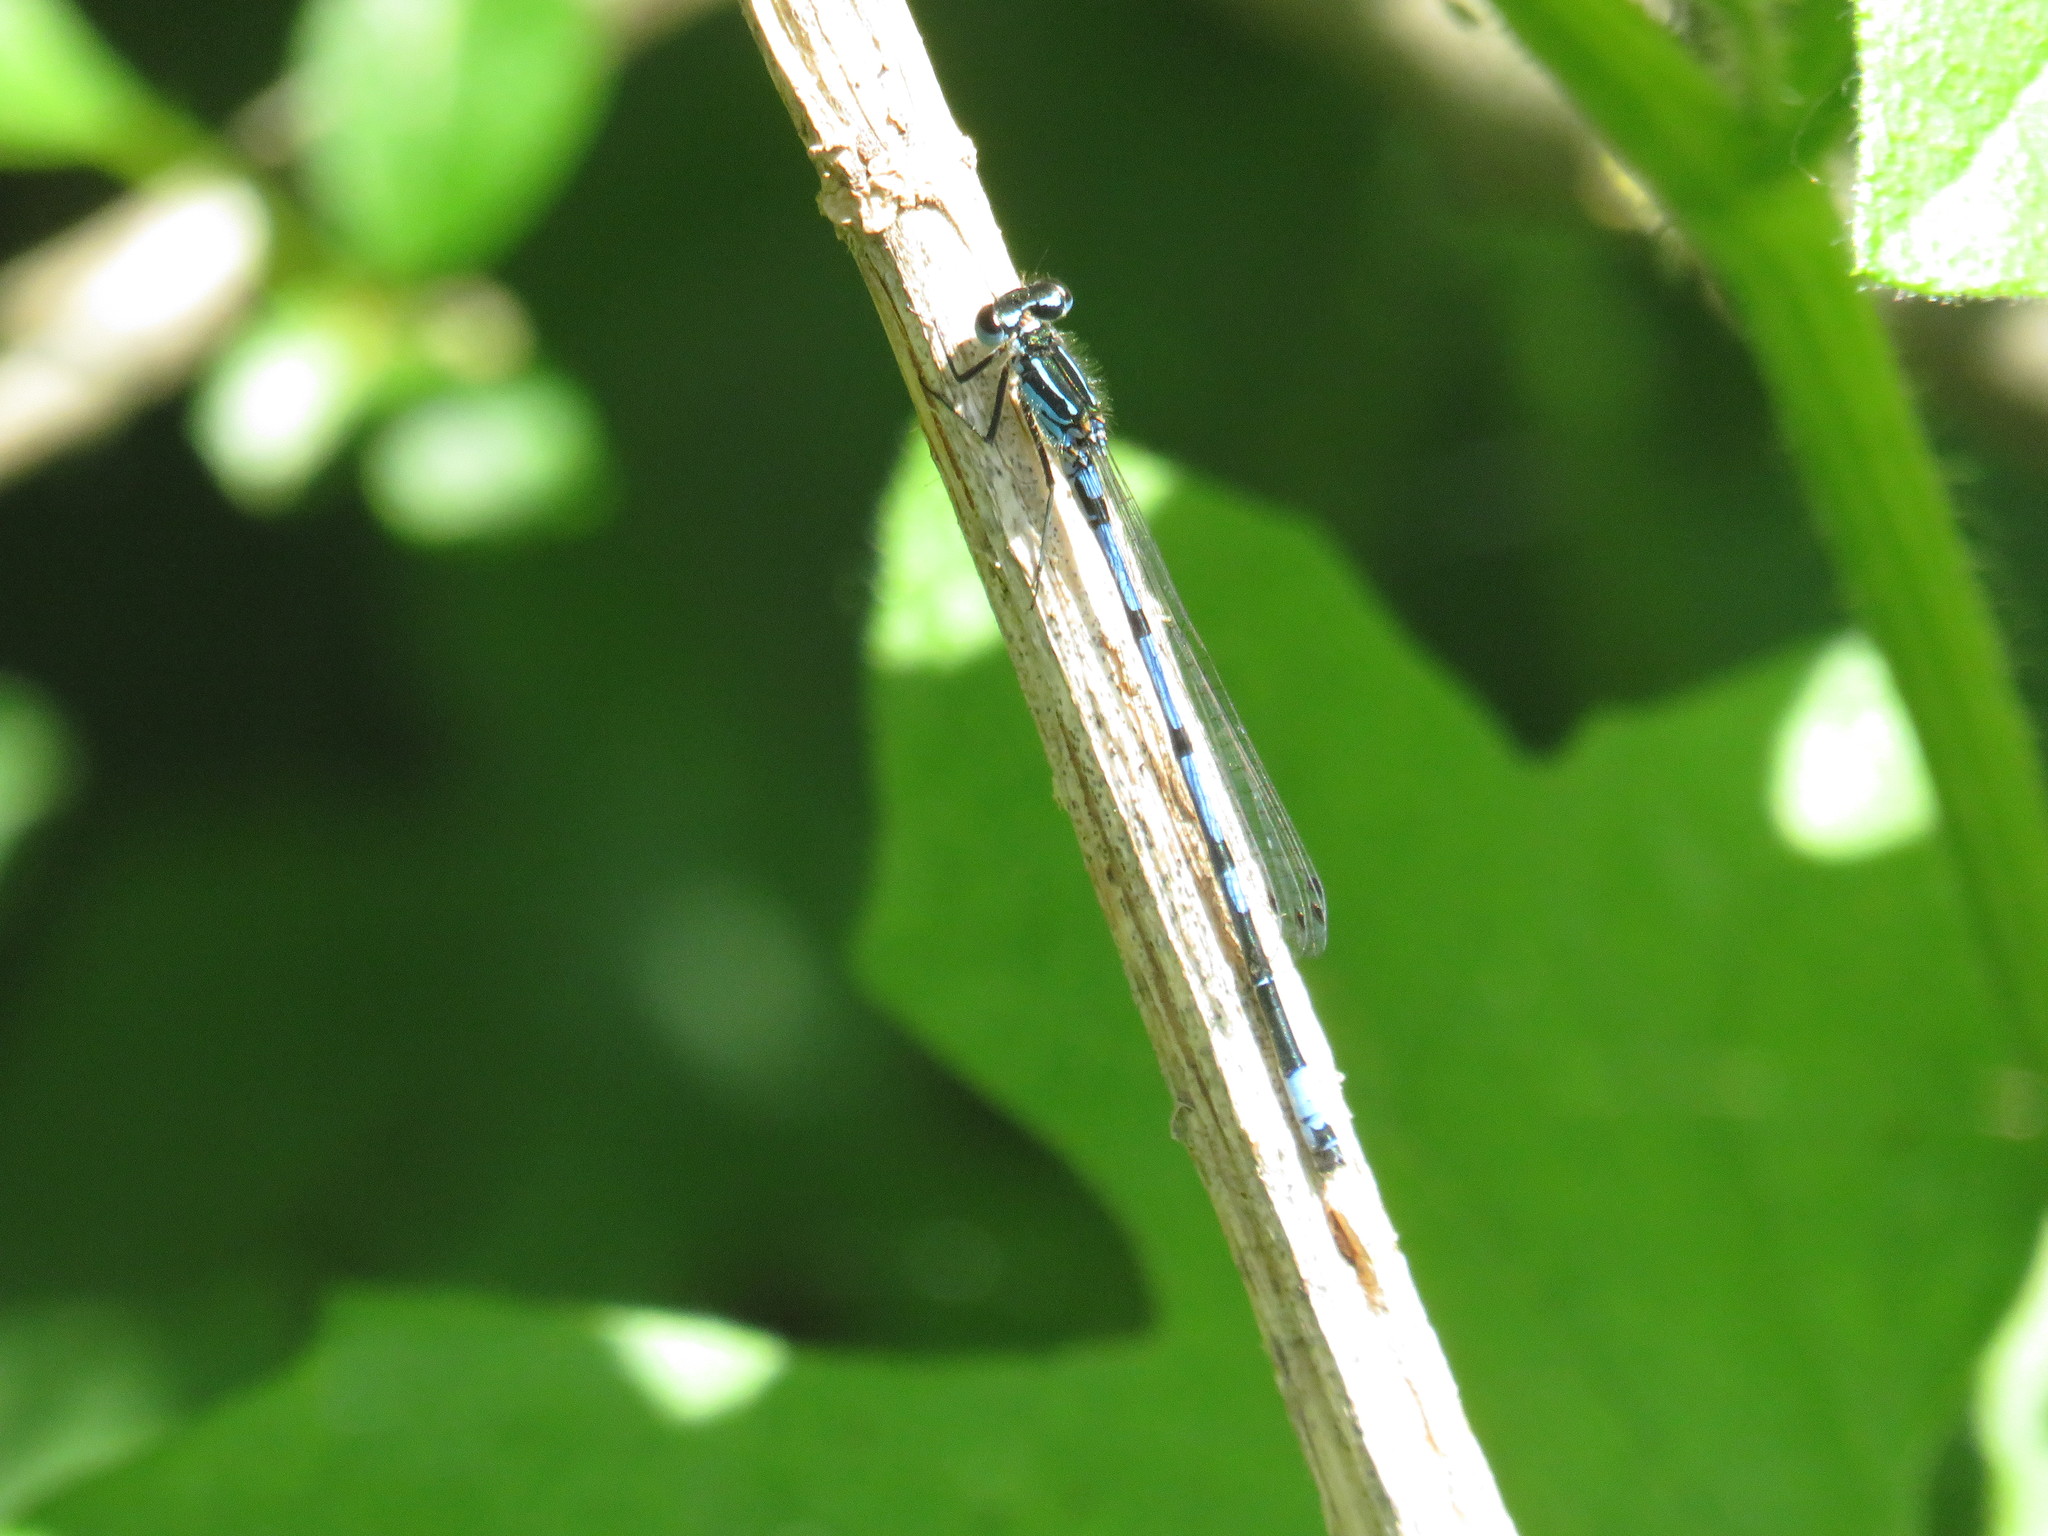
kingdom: Animalia
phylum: Arthropoda
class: Insecta
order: Odonata
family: Coenagrionidae
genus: Coenagrion
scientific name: Coenagrion pulchellum
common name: Variable bluet
